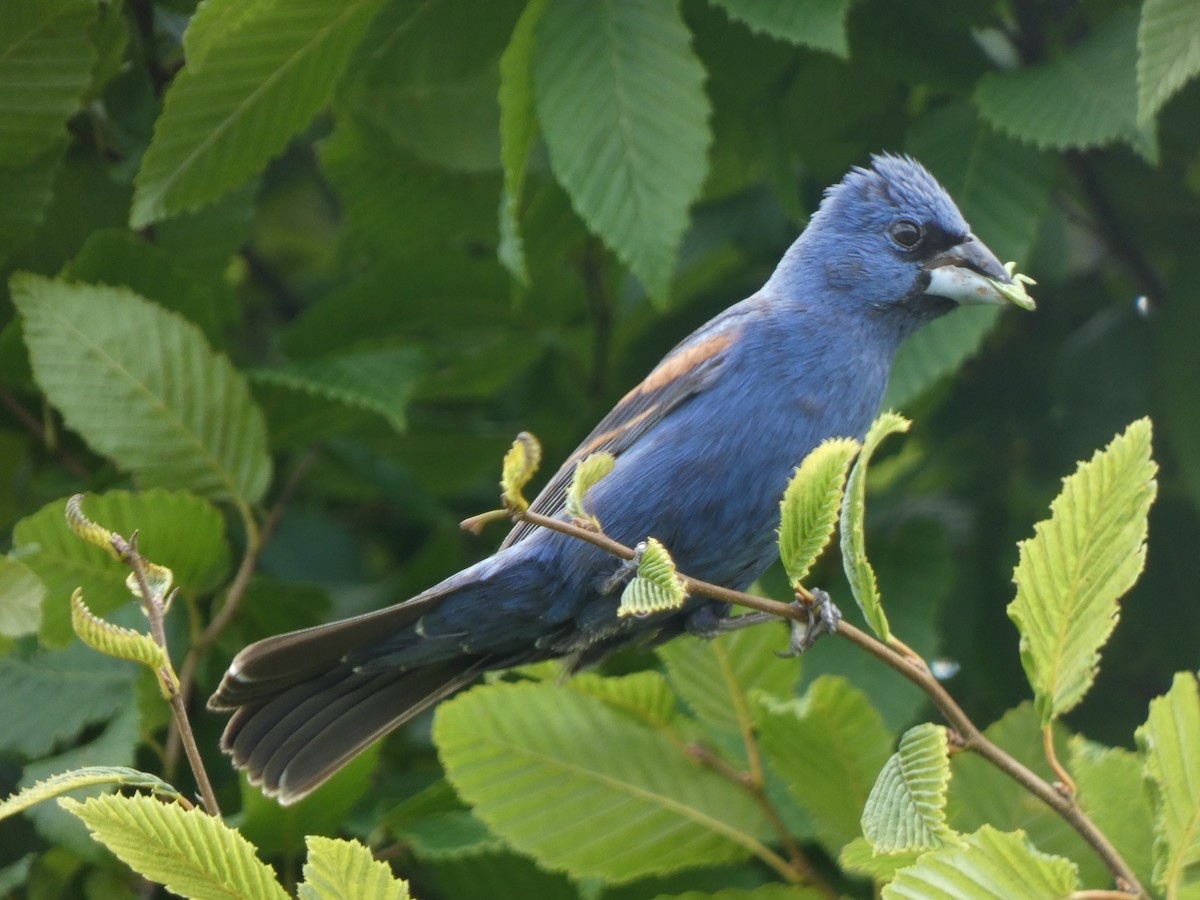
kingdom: Animalia
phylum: Chordata
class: Aves
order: Passeriformes
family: Cardinalidae
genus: Passerina
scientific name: Passerina caerulea
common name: Blue grosbeak
